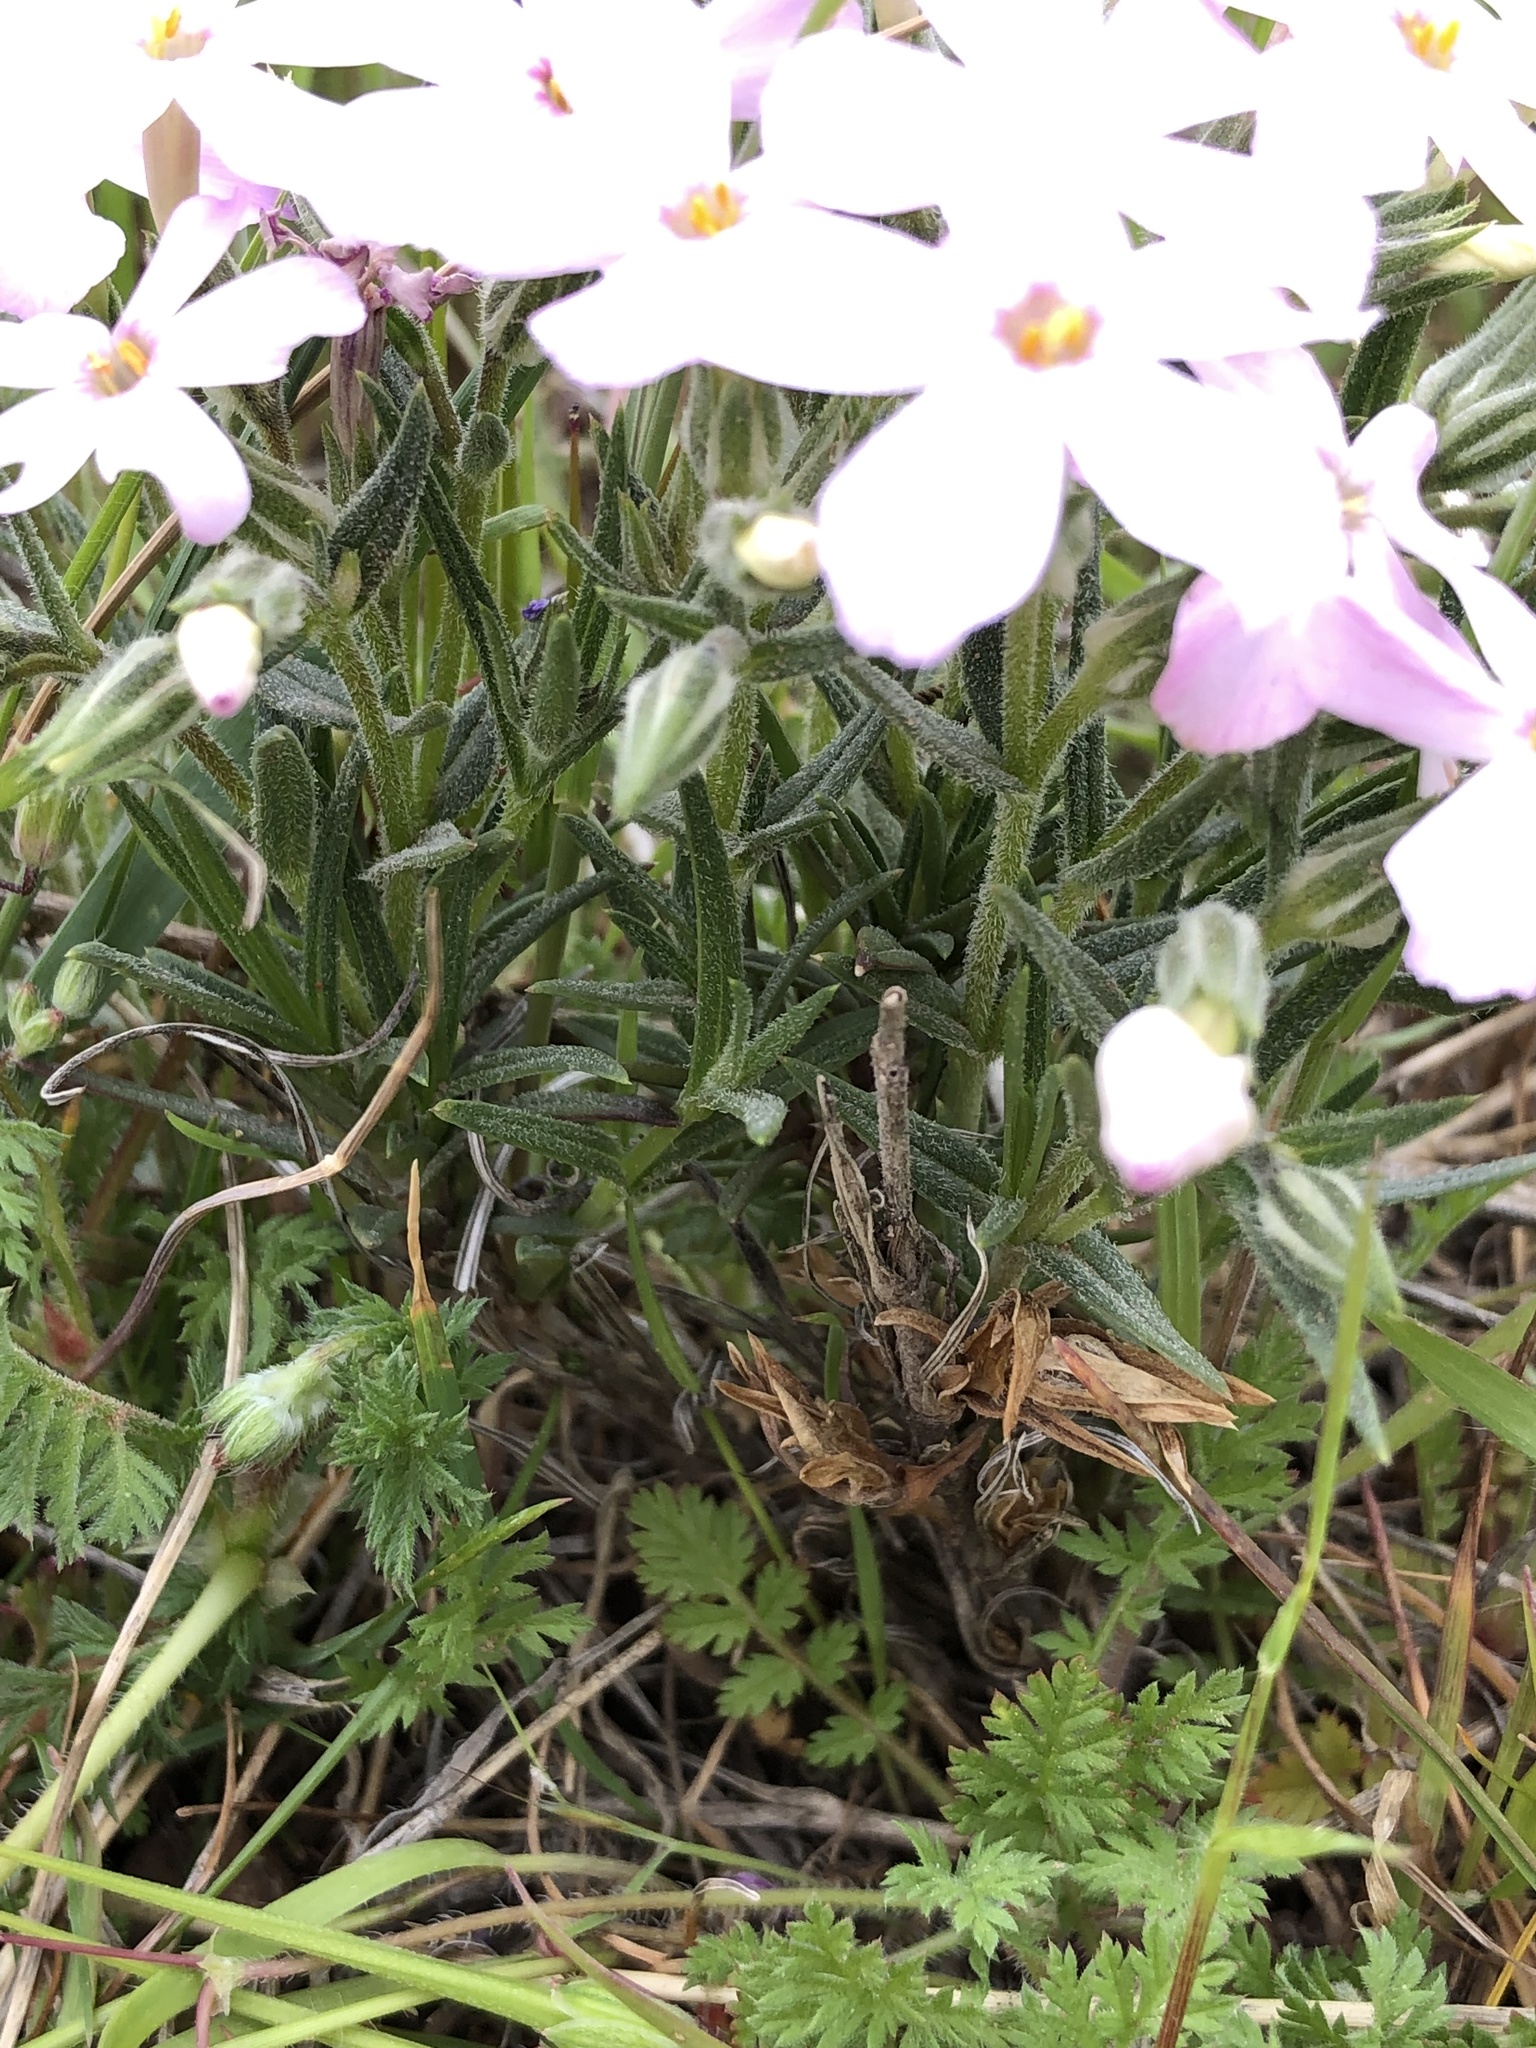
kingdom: Plantae
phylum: Tracheophyta
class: Magnoliopsida
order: Ericales
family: Polemoniaceae
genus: Phlox
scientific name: Phlox longifolia
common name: Longleaf phlox
